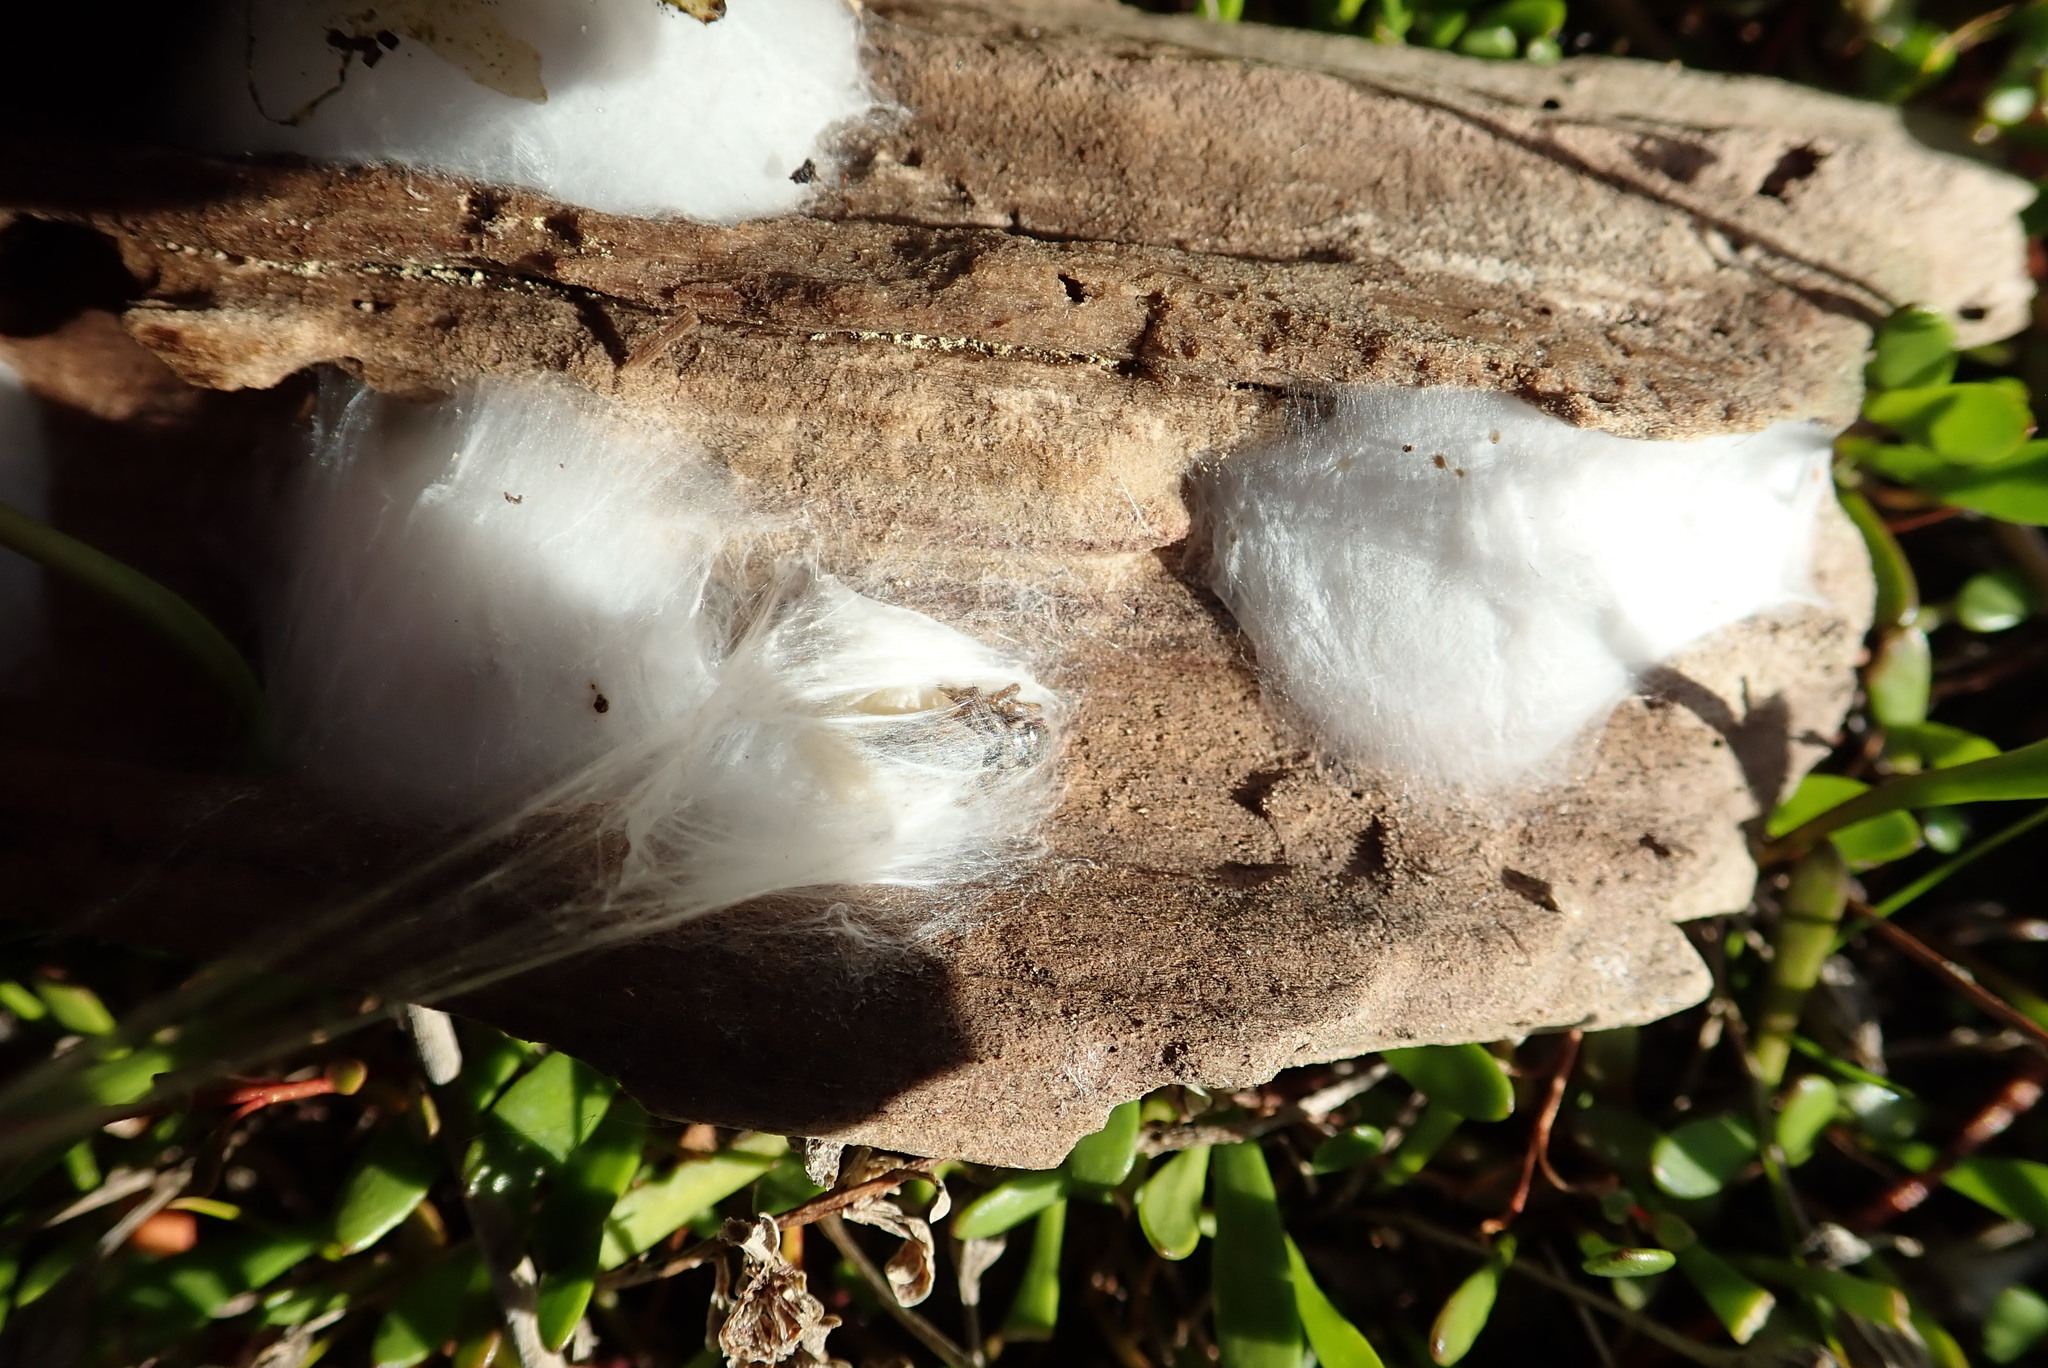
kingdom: Animalia
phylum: Arthropoda
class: Arachnida
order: Araneae
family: Salticidae
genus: Maratus
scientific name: Maratus griseus
